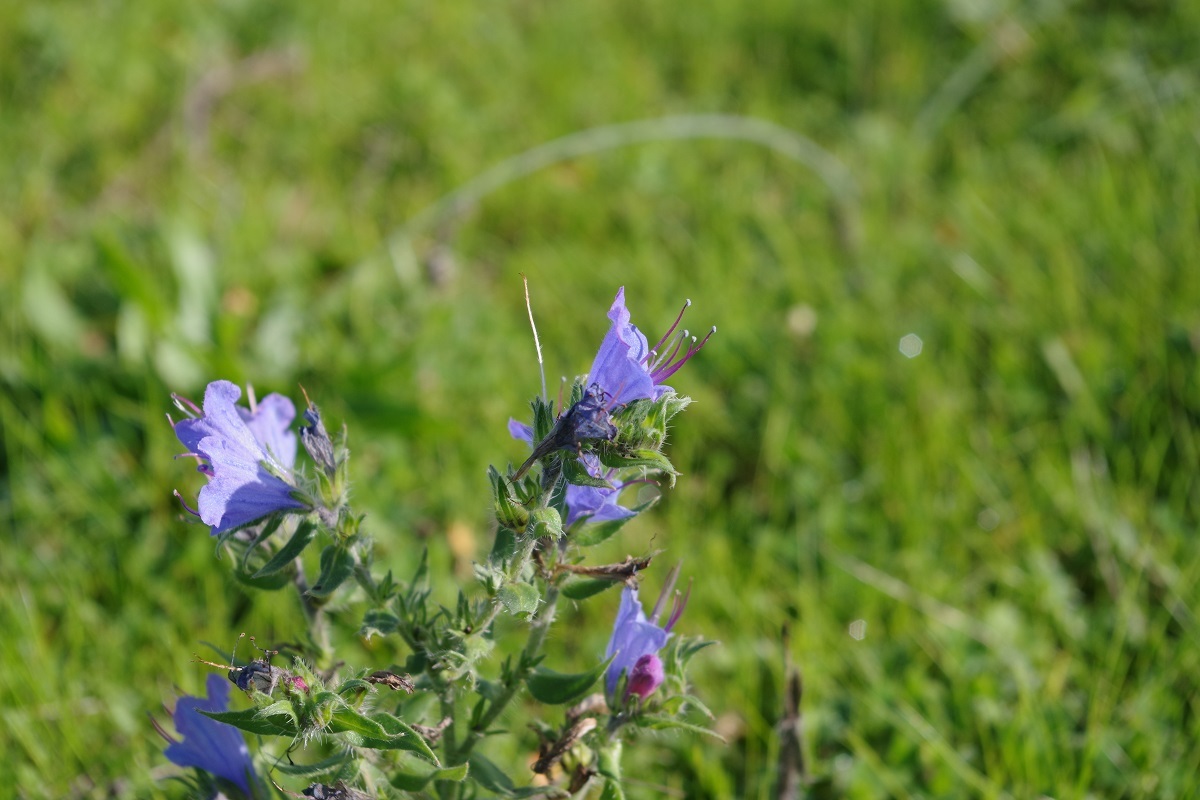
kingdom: Plantae
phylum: Tracheophyta
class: Magnoliopsida
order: Boraginales
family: Boraginaceae
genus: Echium
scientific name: Echium vulgare
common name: Common viper's bugloss
